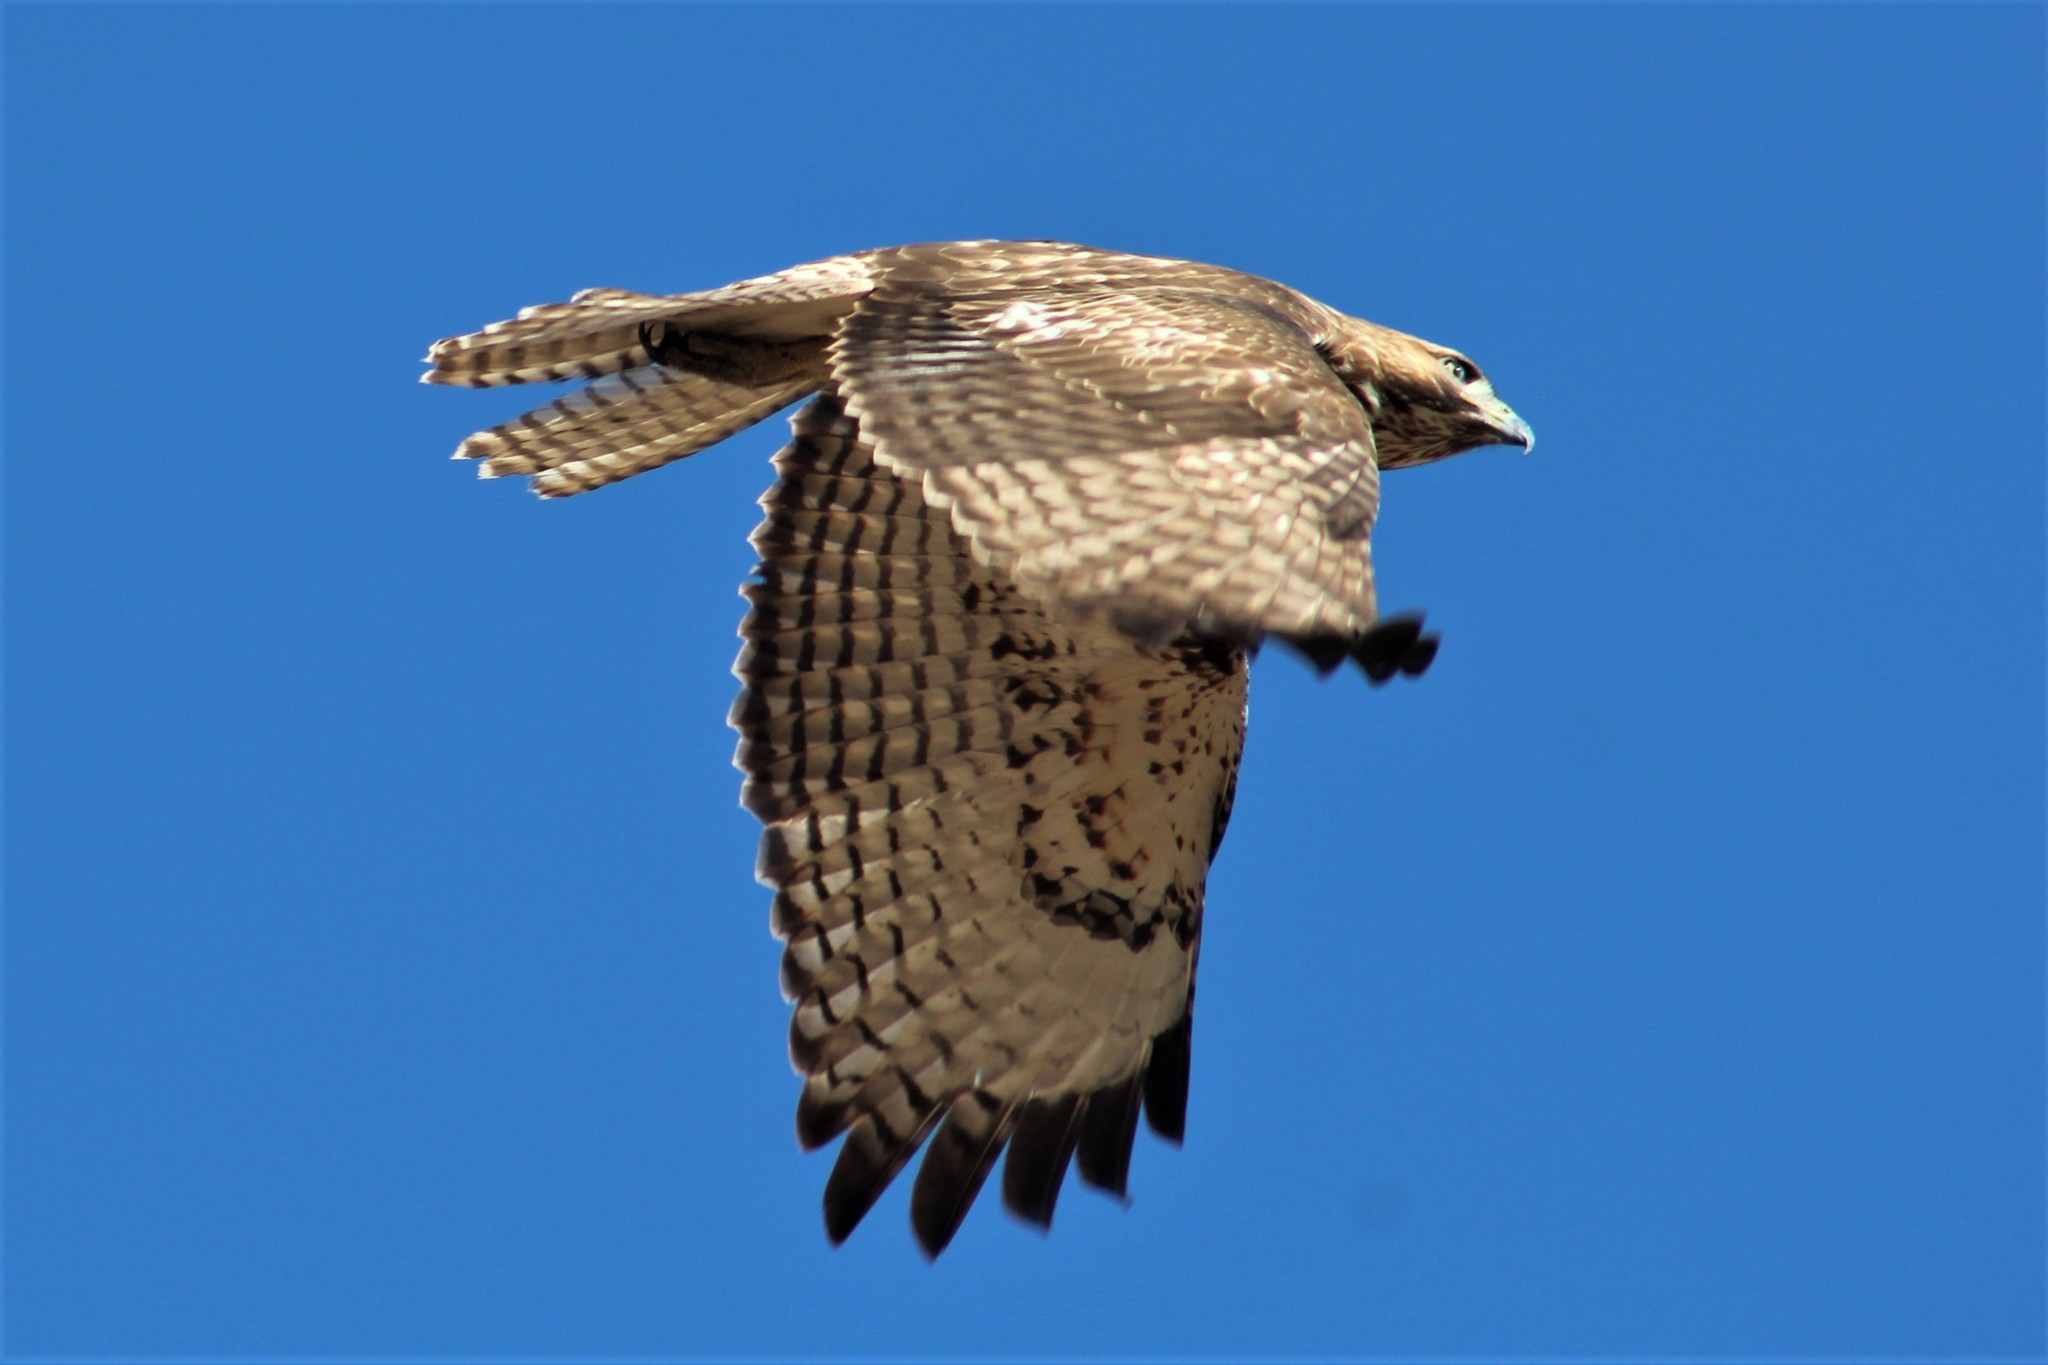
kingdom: Animalia
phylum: Chordata
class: Aves
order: Accipitriformes
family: Accipitridae
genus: Buteo
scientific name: Buteo jamaicensis
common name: Red-tailed hawk
